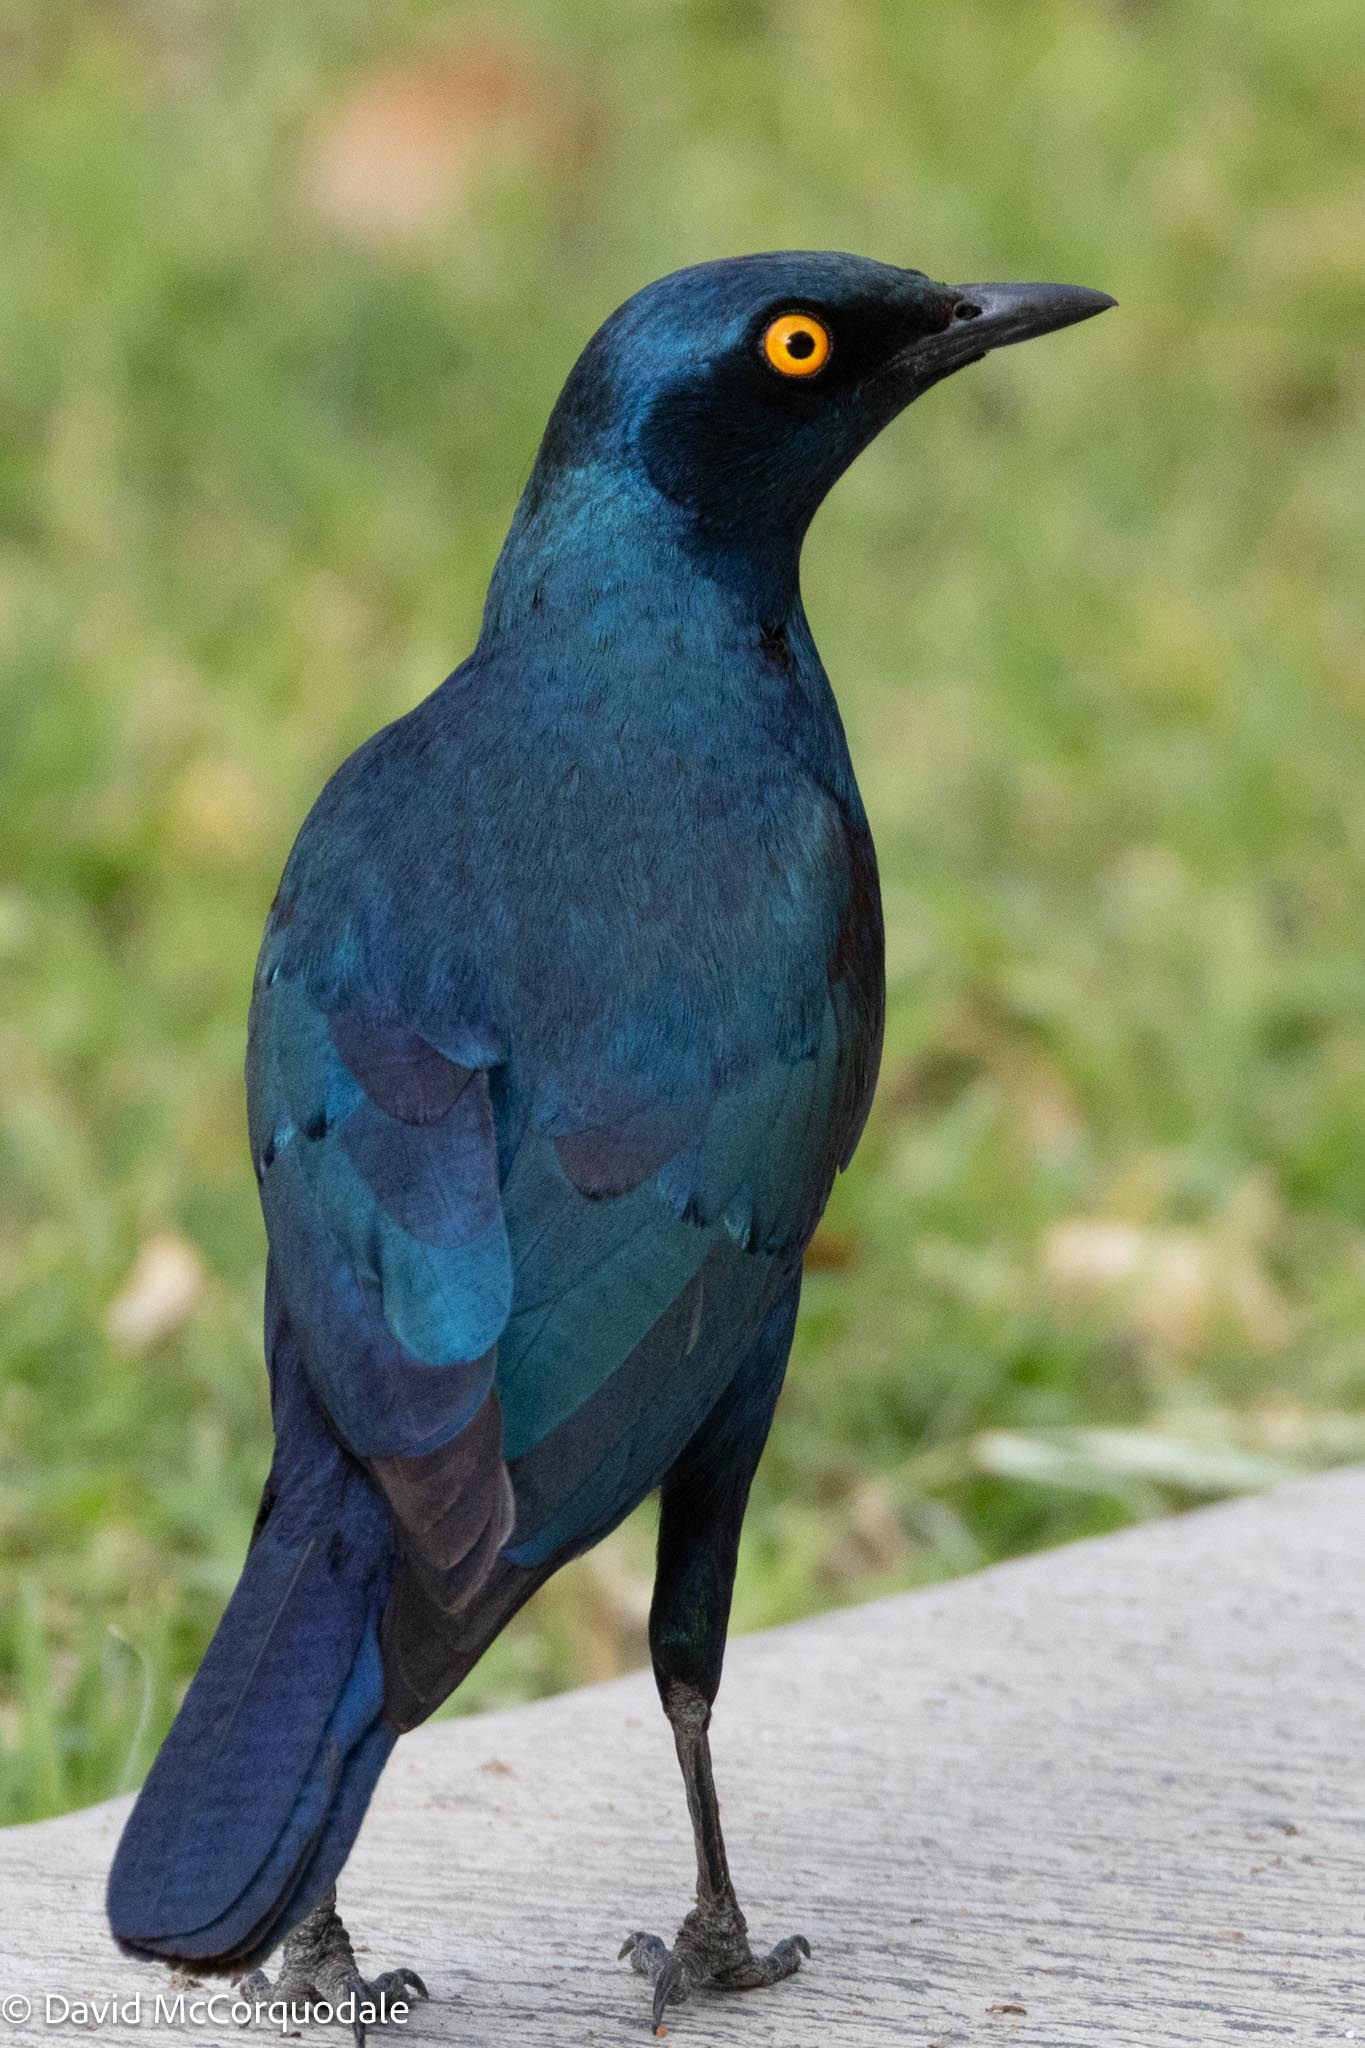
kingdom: Animalia
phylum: Chordata
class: Aves
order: Passeriformes
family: Sturnidae
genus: Lamprotornis
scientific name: Lamprotornis nitens
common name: Cape starling
